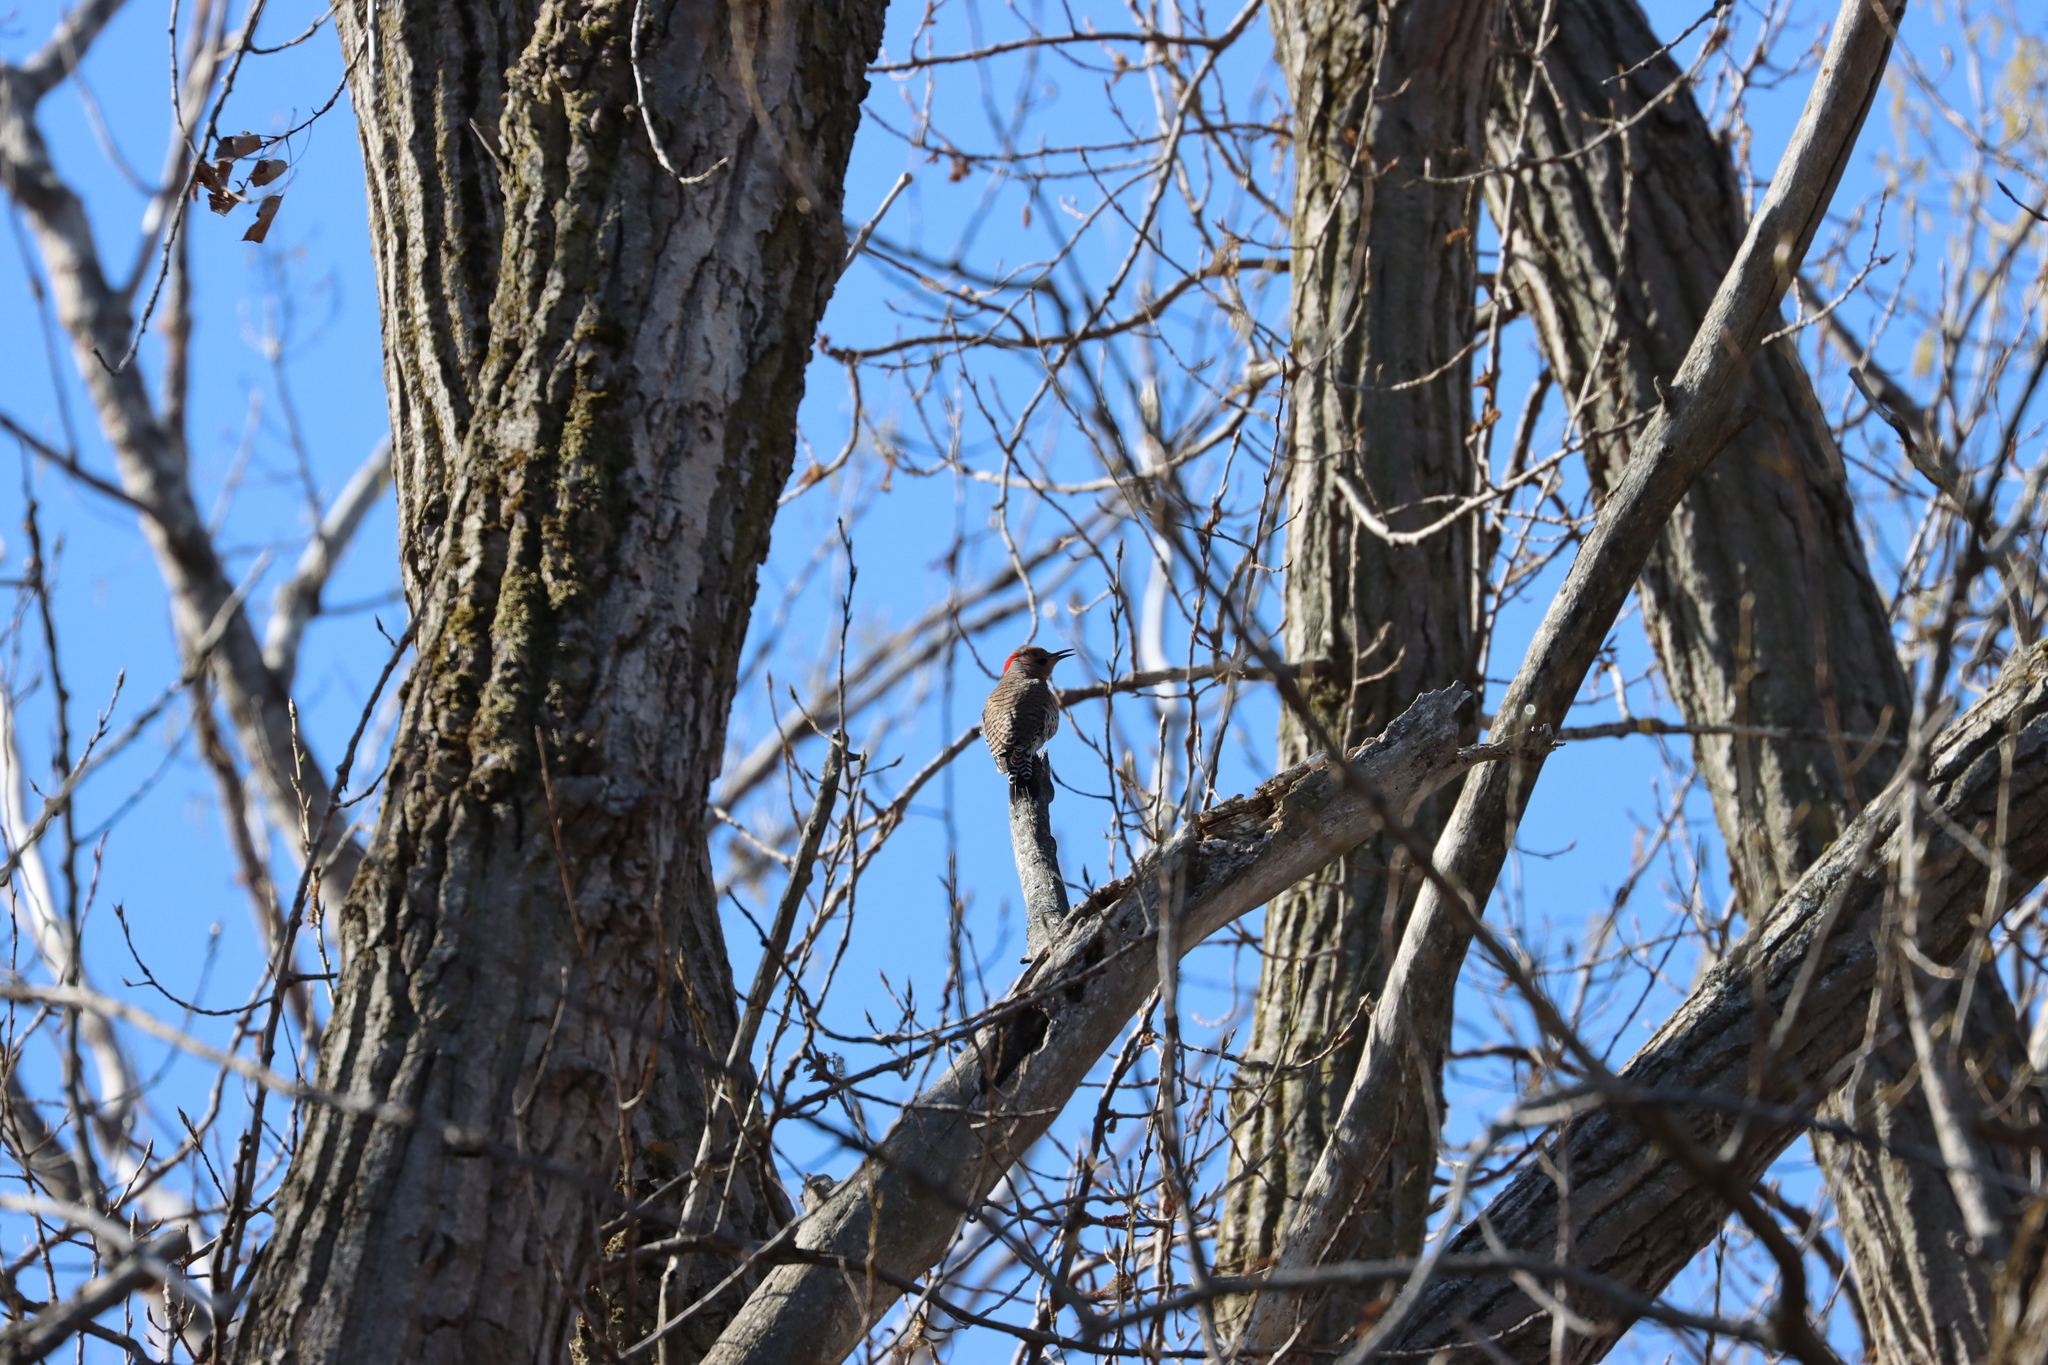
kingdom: Animalia
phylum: Chordata
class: Aves
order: Piciformes
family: Picidae
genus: Colaptes
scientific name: Colaptes auratus
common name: Northern flicker
